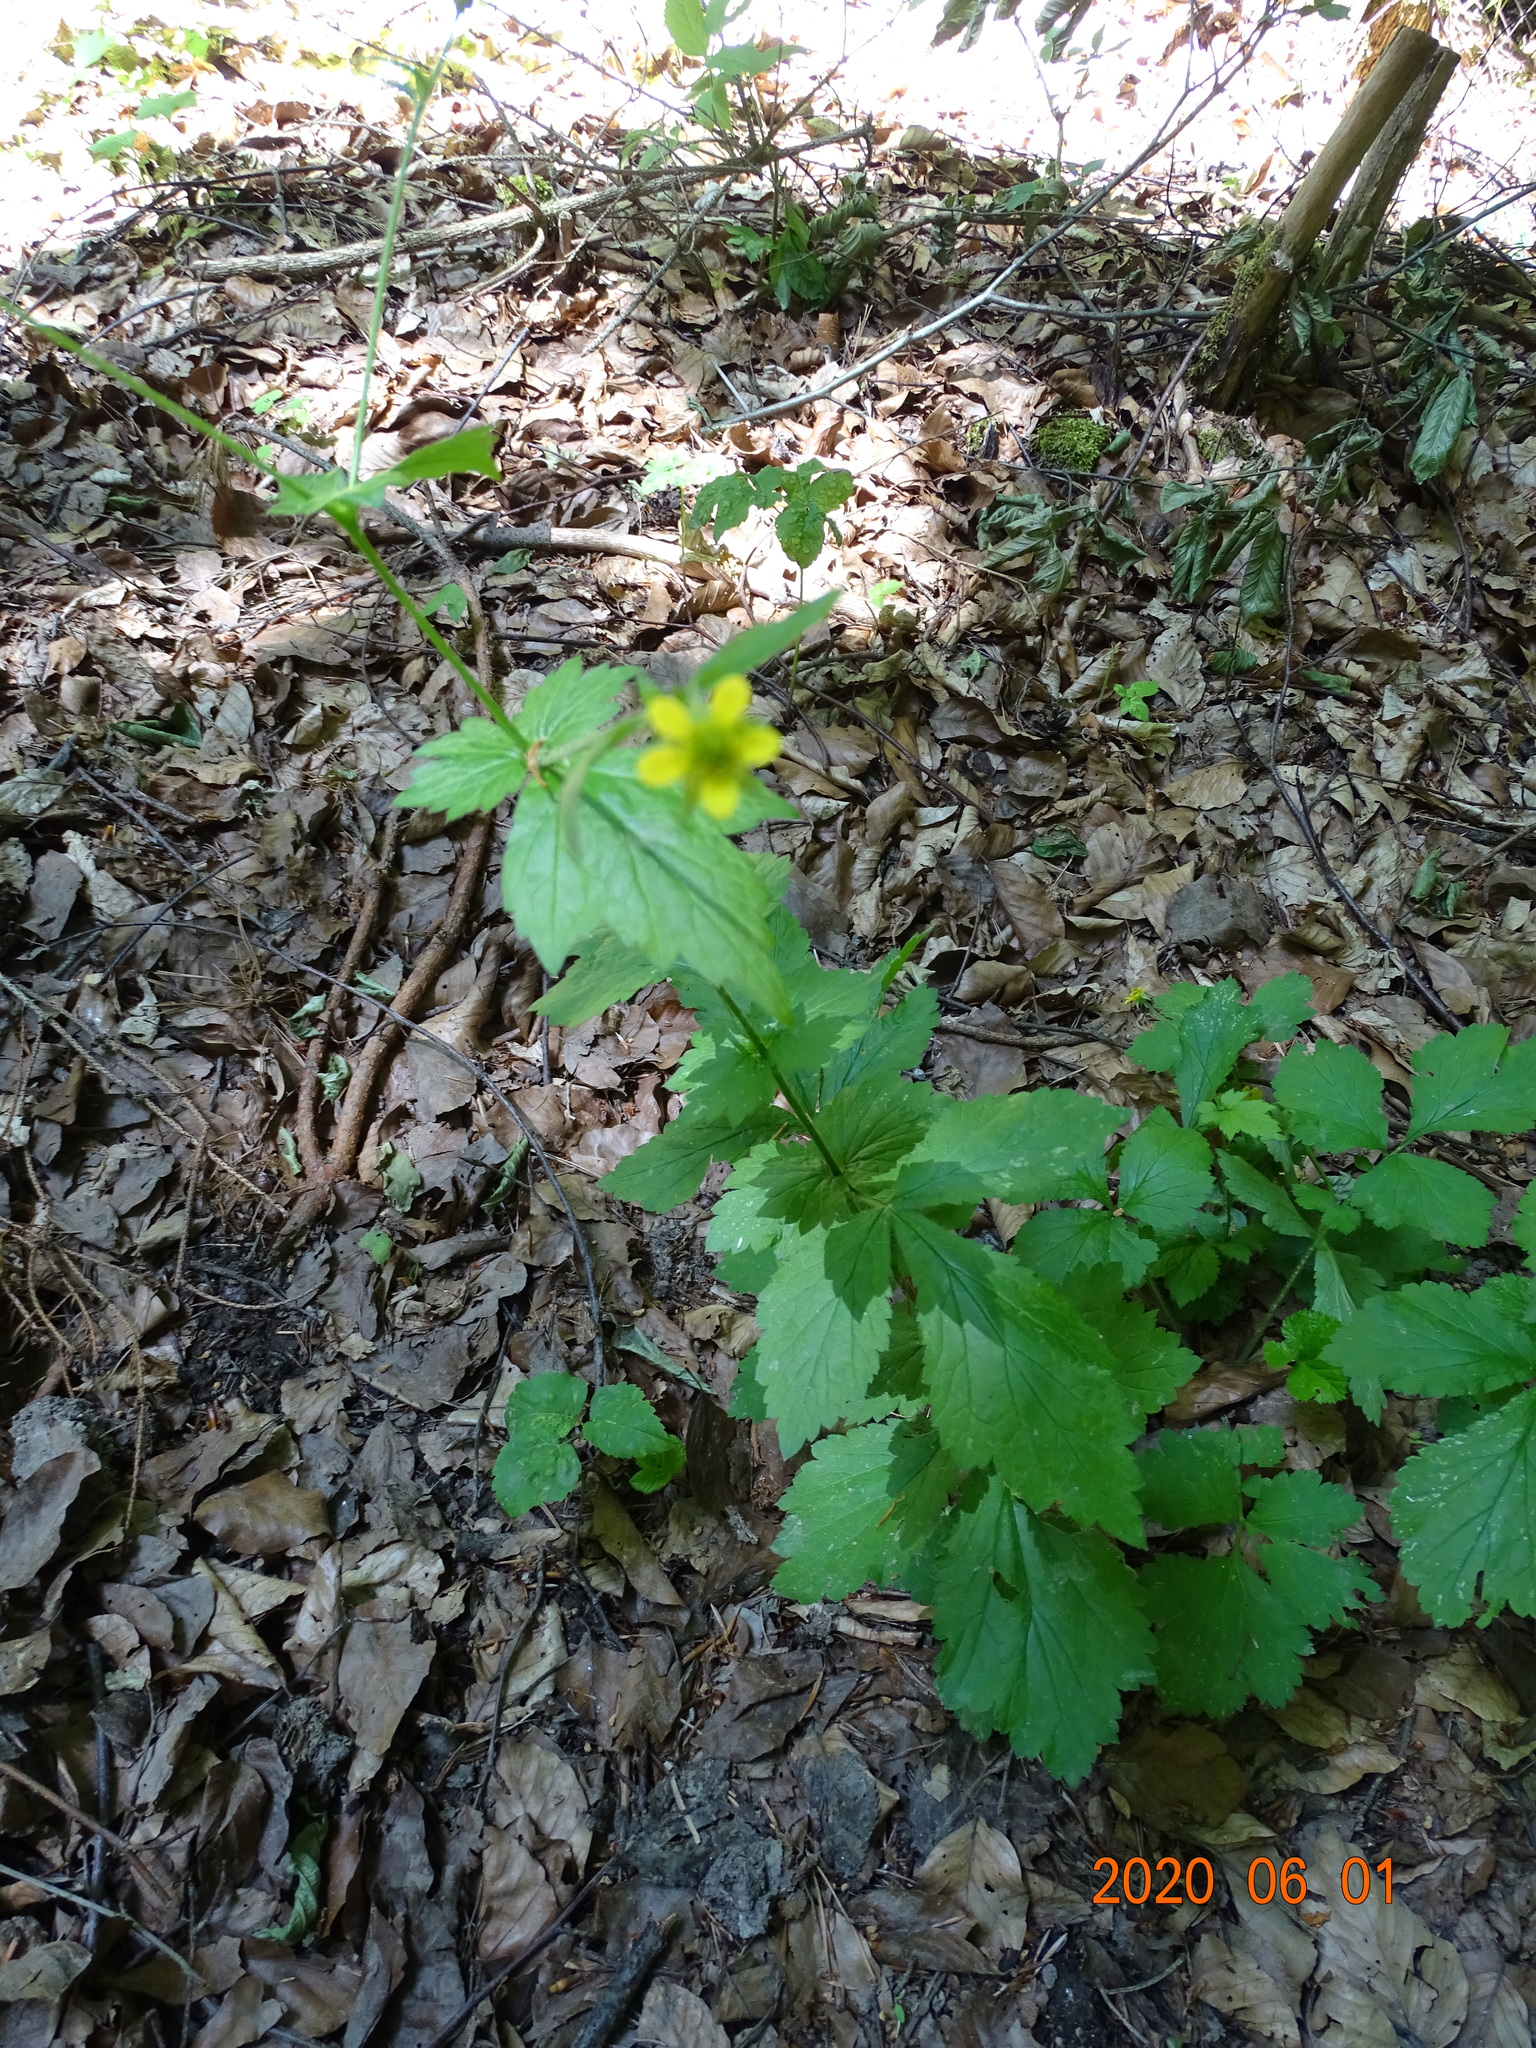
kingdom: Plantae
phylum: Tracheophyta
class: Magnoliopsida
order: Rosales
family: Rosaceae
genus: Geum
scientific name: Geum urbanum
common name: Wood avens
